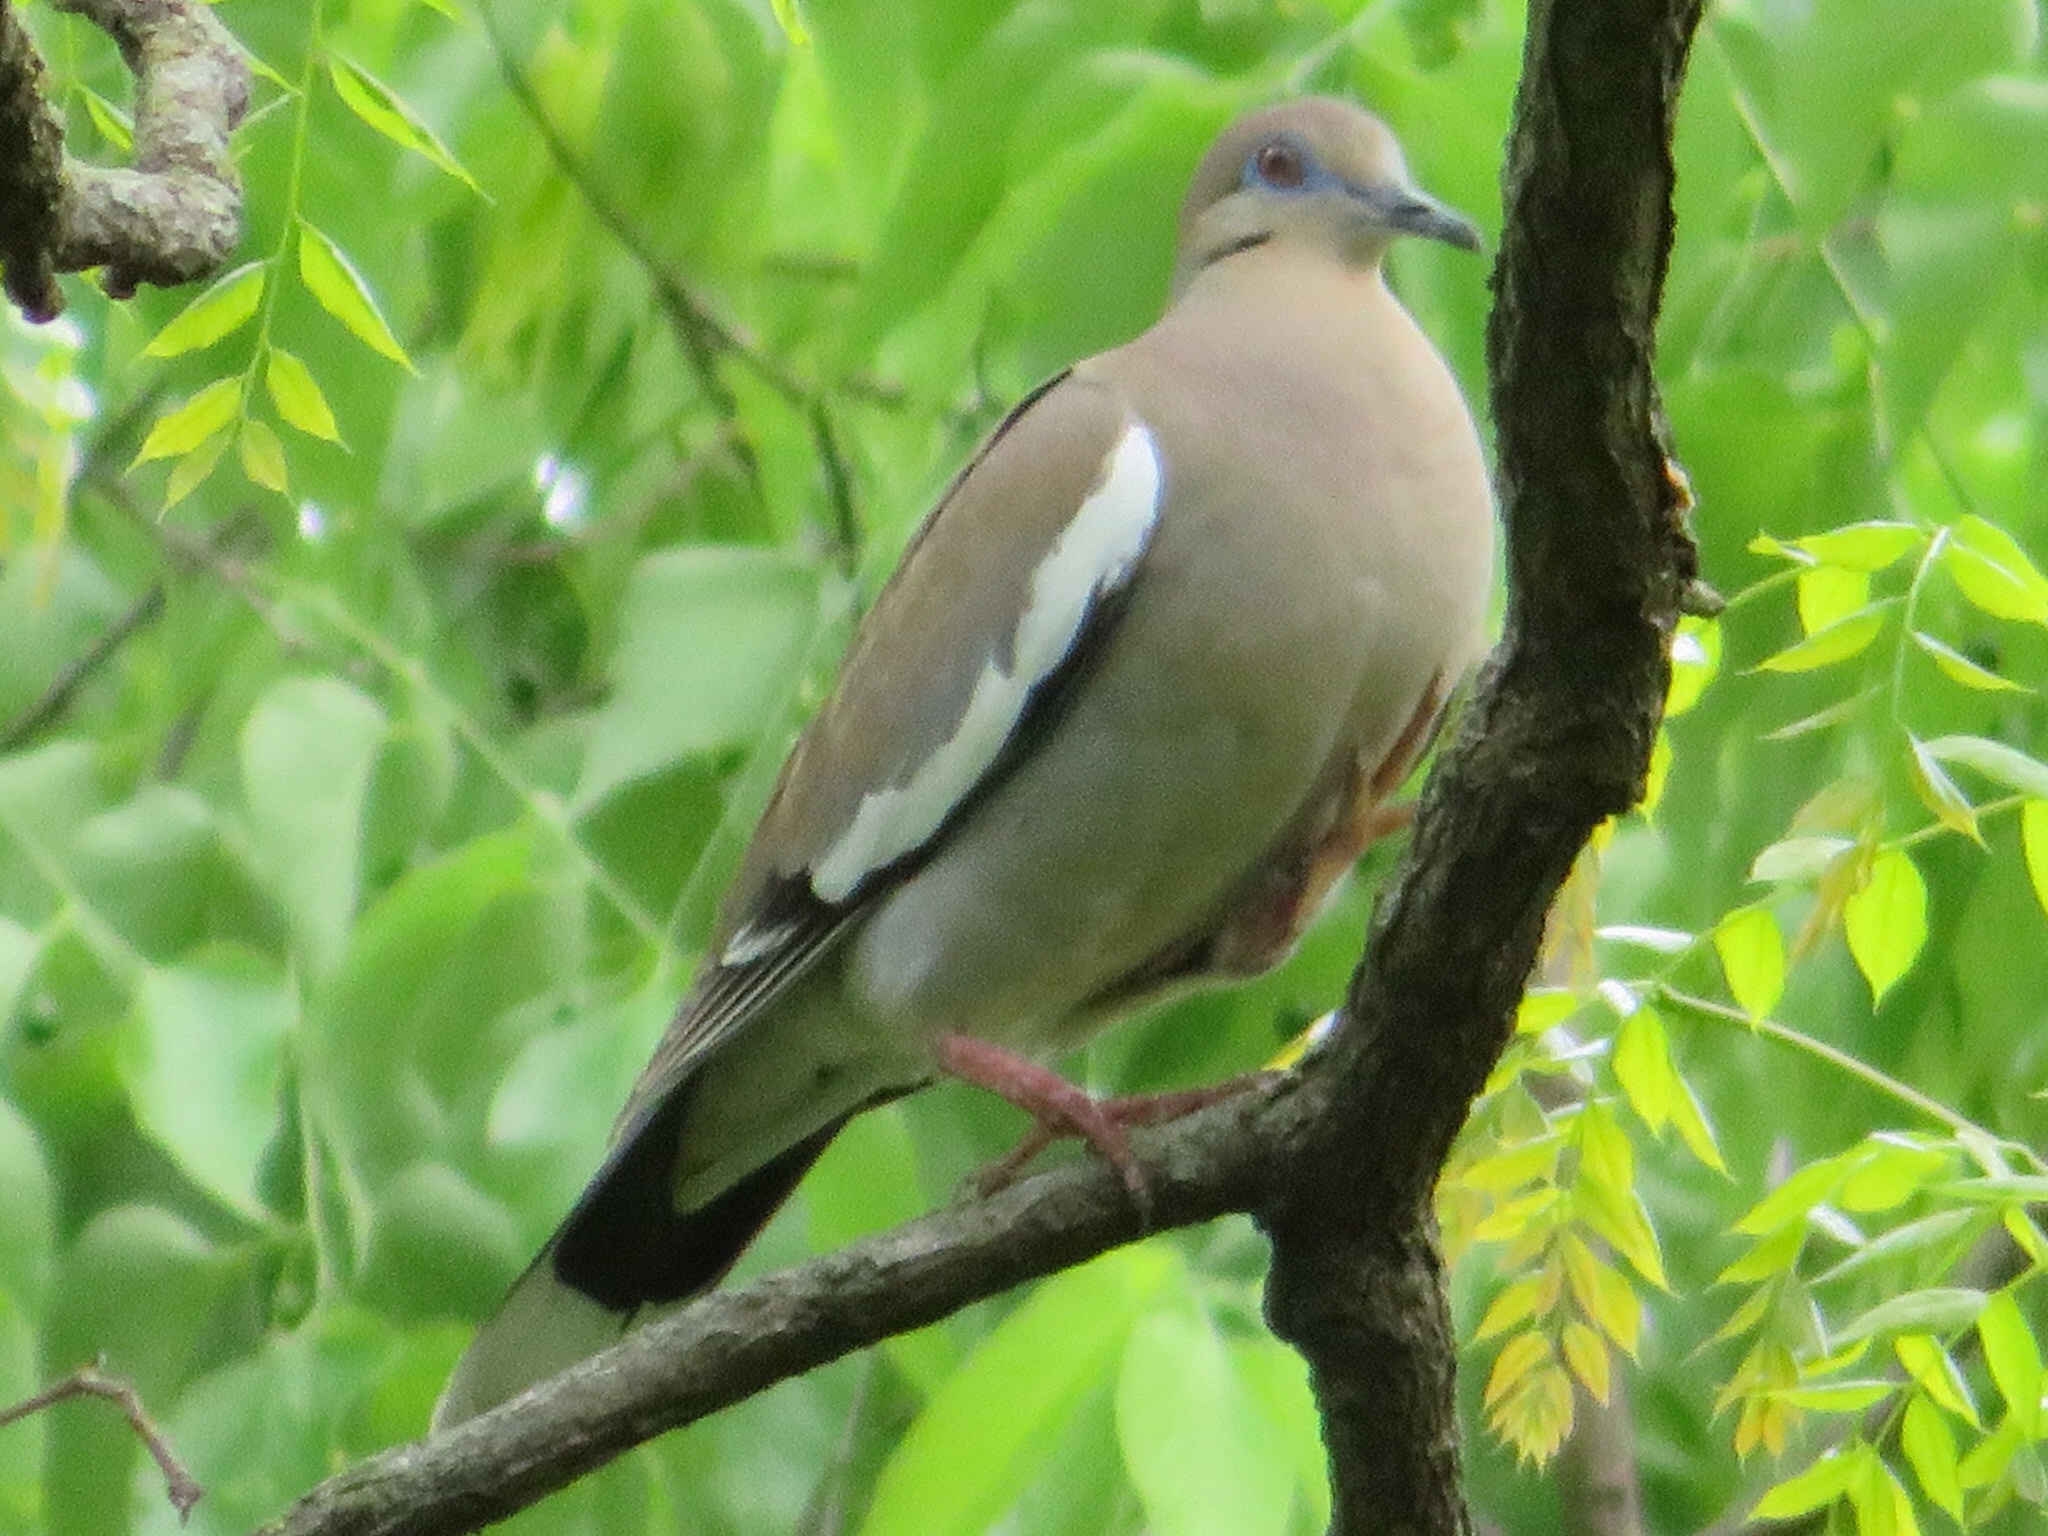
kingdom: Animalia
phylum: Chordata
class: Aves
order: Columbiformes
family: Columbidae
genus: Zenaida
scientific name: Zenaida asiatica
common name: White-winged dove
